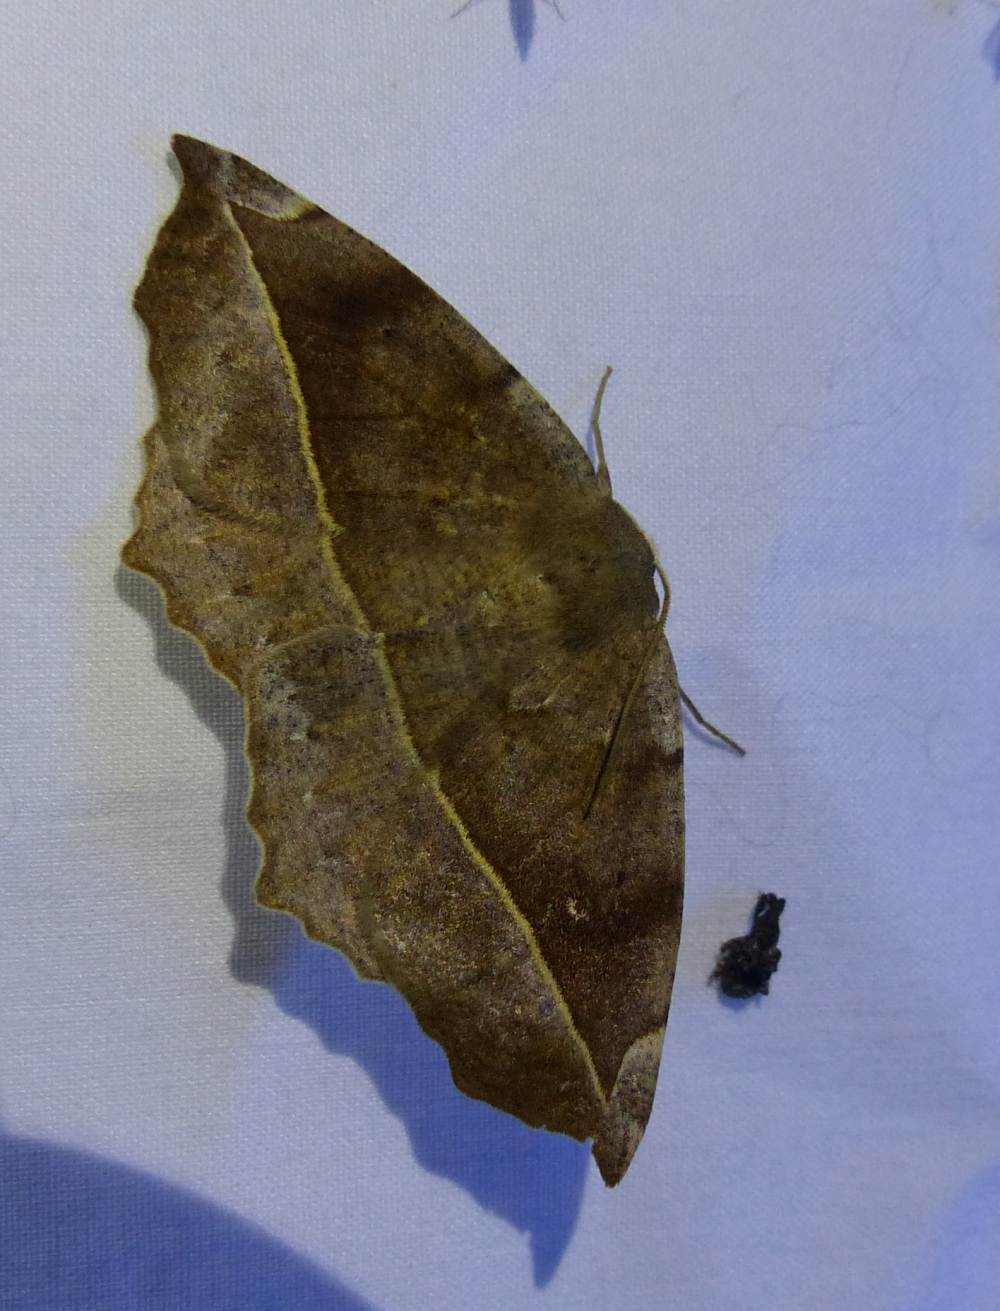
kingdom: Animalia
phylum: Arthropoda
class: Insecta
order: Lepidoptera
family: Geometridae
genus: Eutrapela
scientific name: Eutrapela clemataria
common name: Curved-toothed geometer
